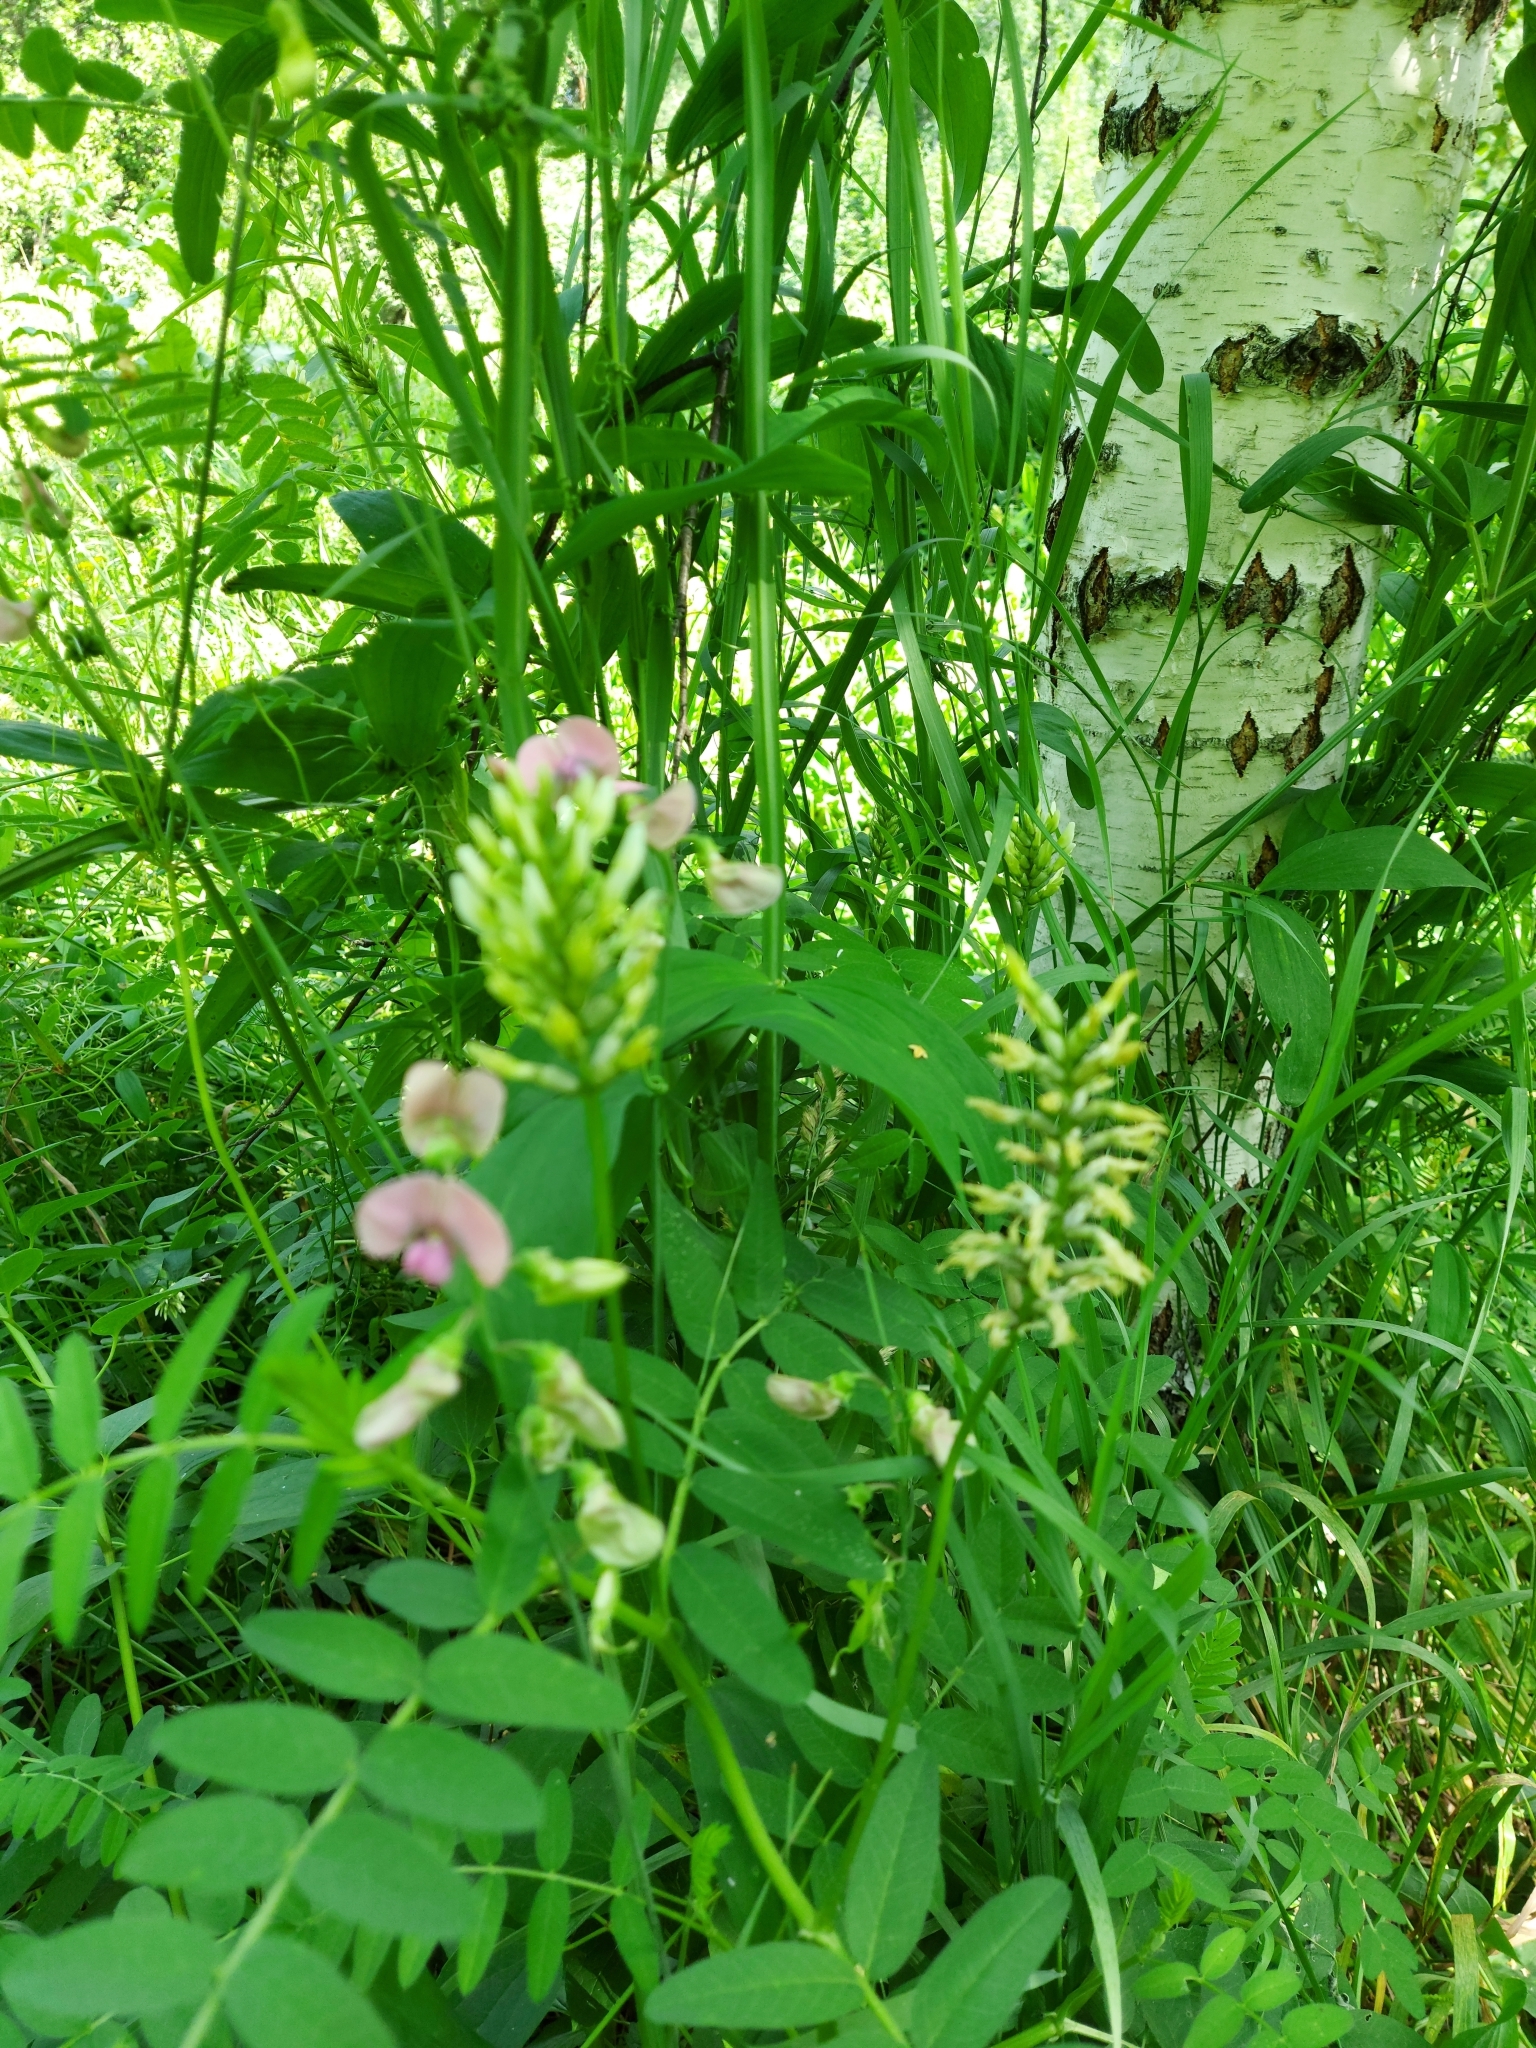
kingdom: Plantae
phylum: Tracheophyta
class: Magnoliopsida
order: Fabales
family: Fabaceae
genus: Lathyrus
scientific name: Lathyrus sylvestris
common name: Flat pea
